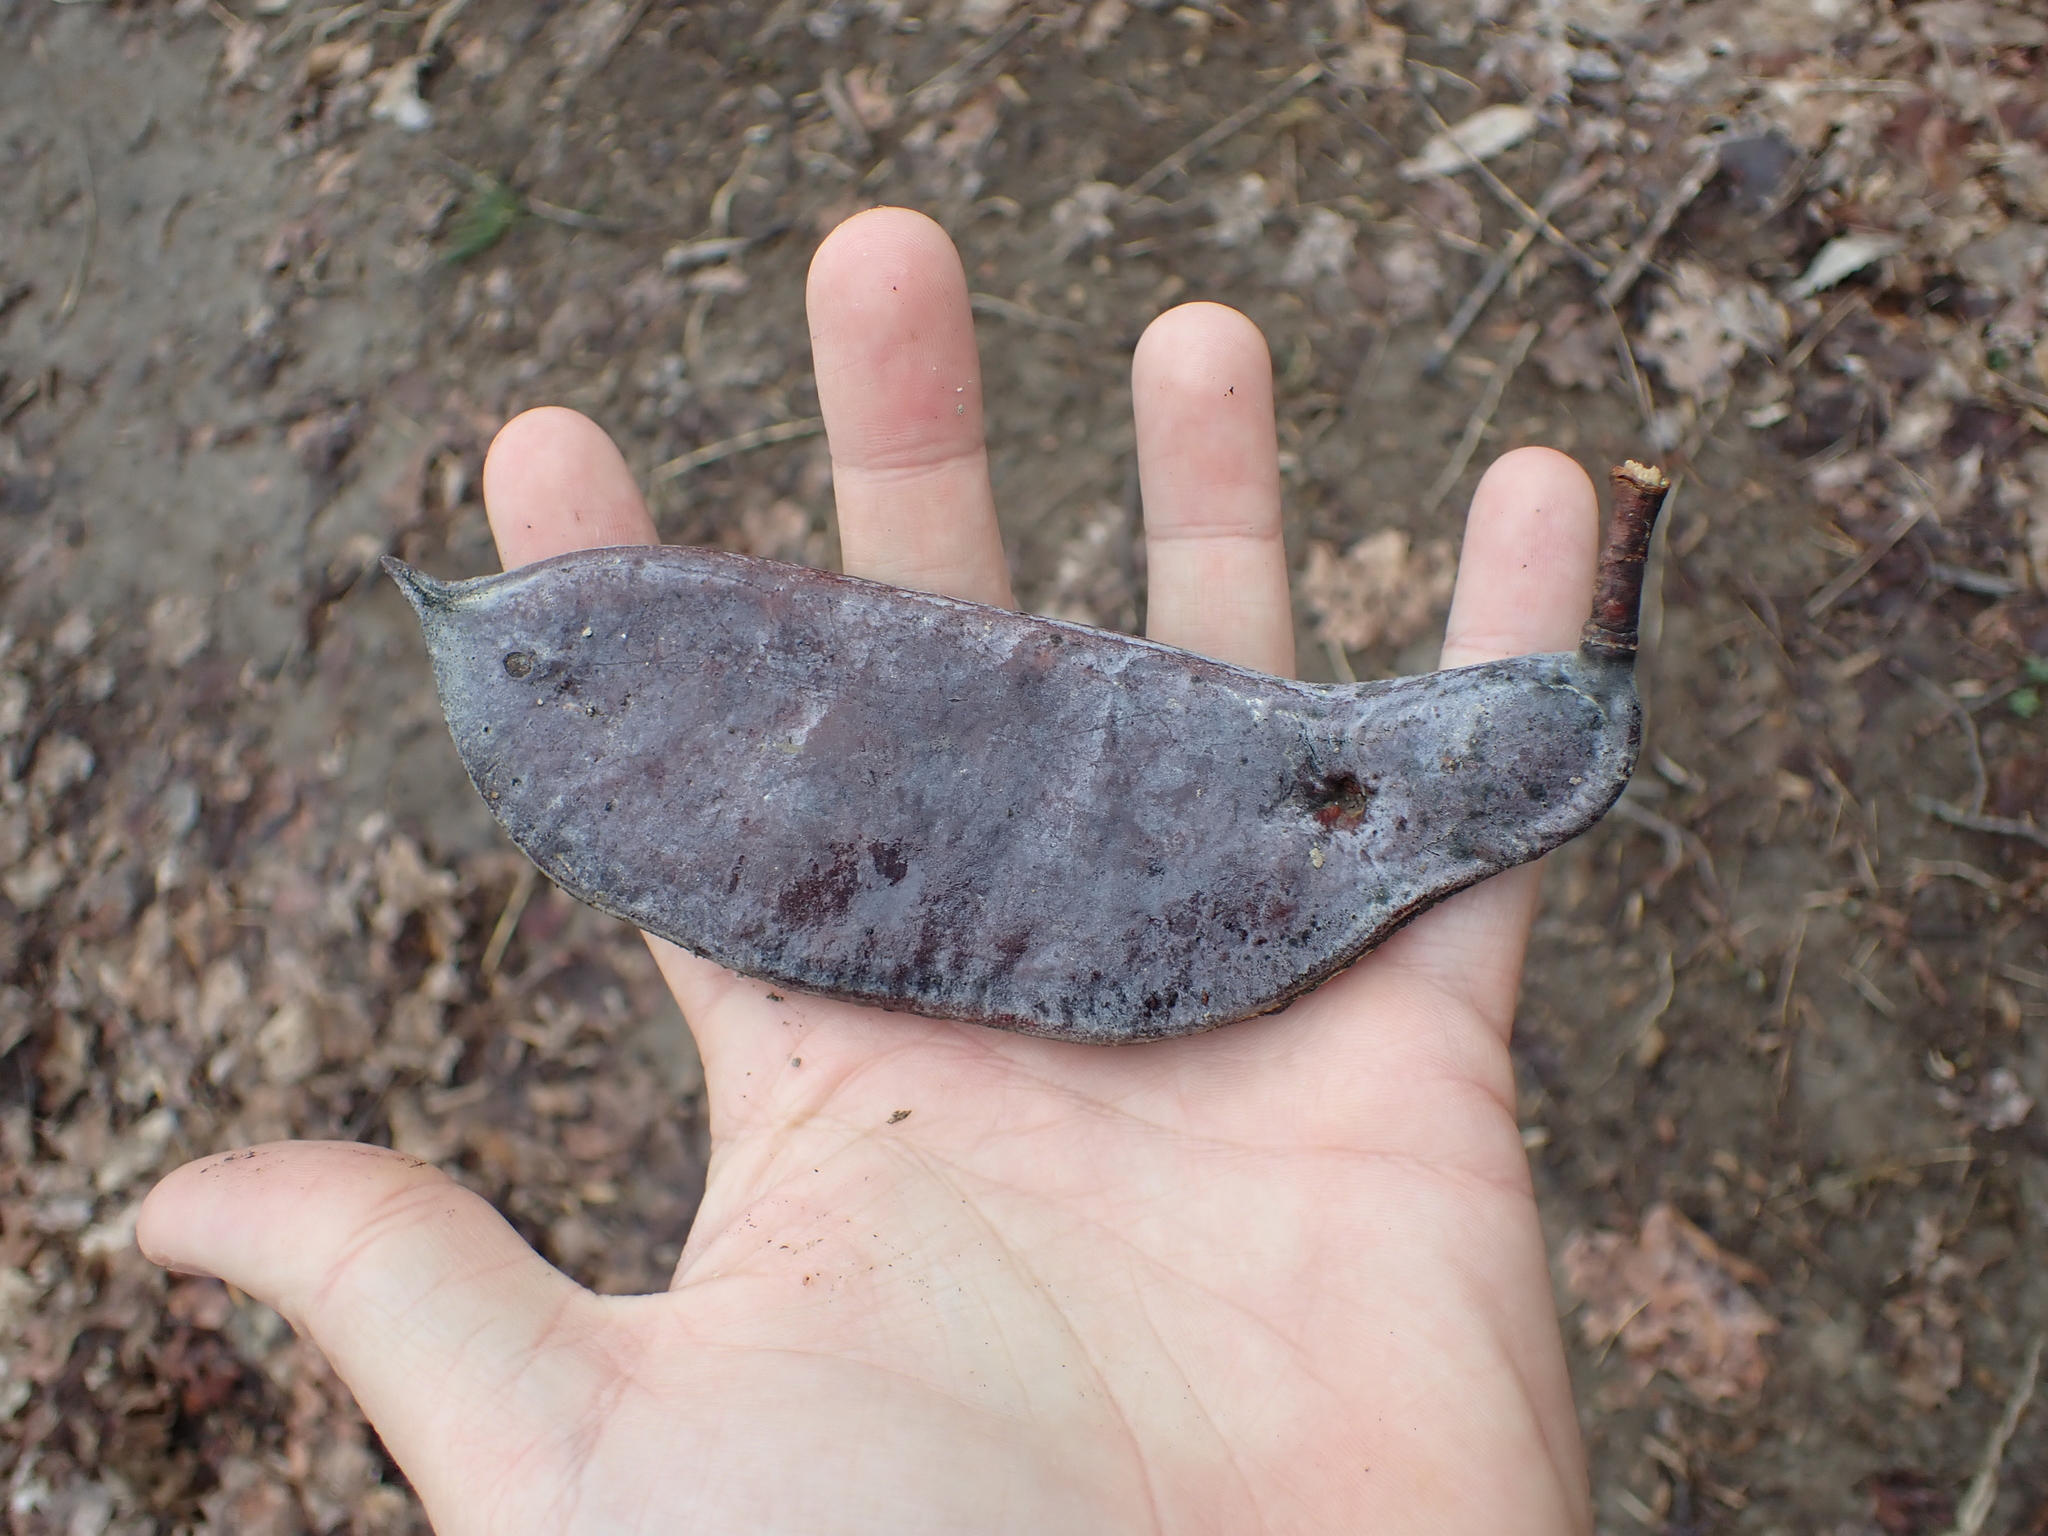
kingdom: Plantae
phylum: Tracheophyta
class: Magnoliopsida
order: Fabales
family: Fabaceae
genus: Gymnocladus
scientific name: Gymnocladus dioicus
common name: Kentucky coffee-tree
